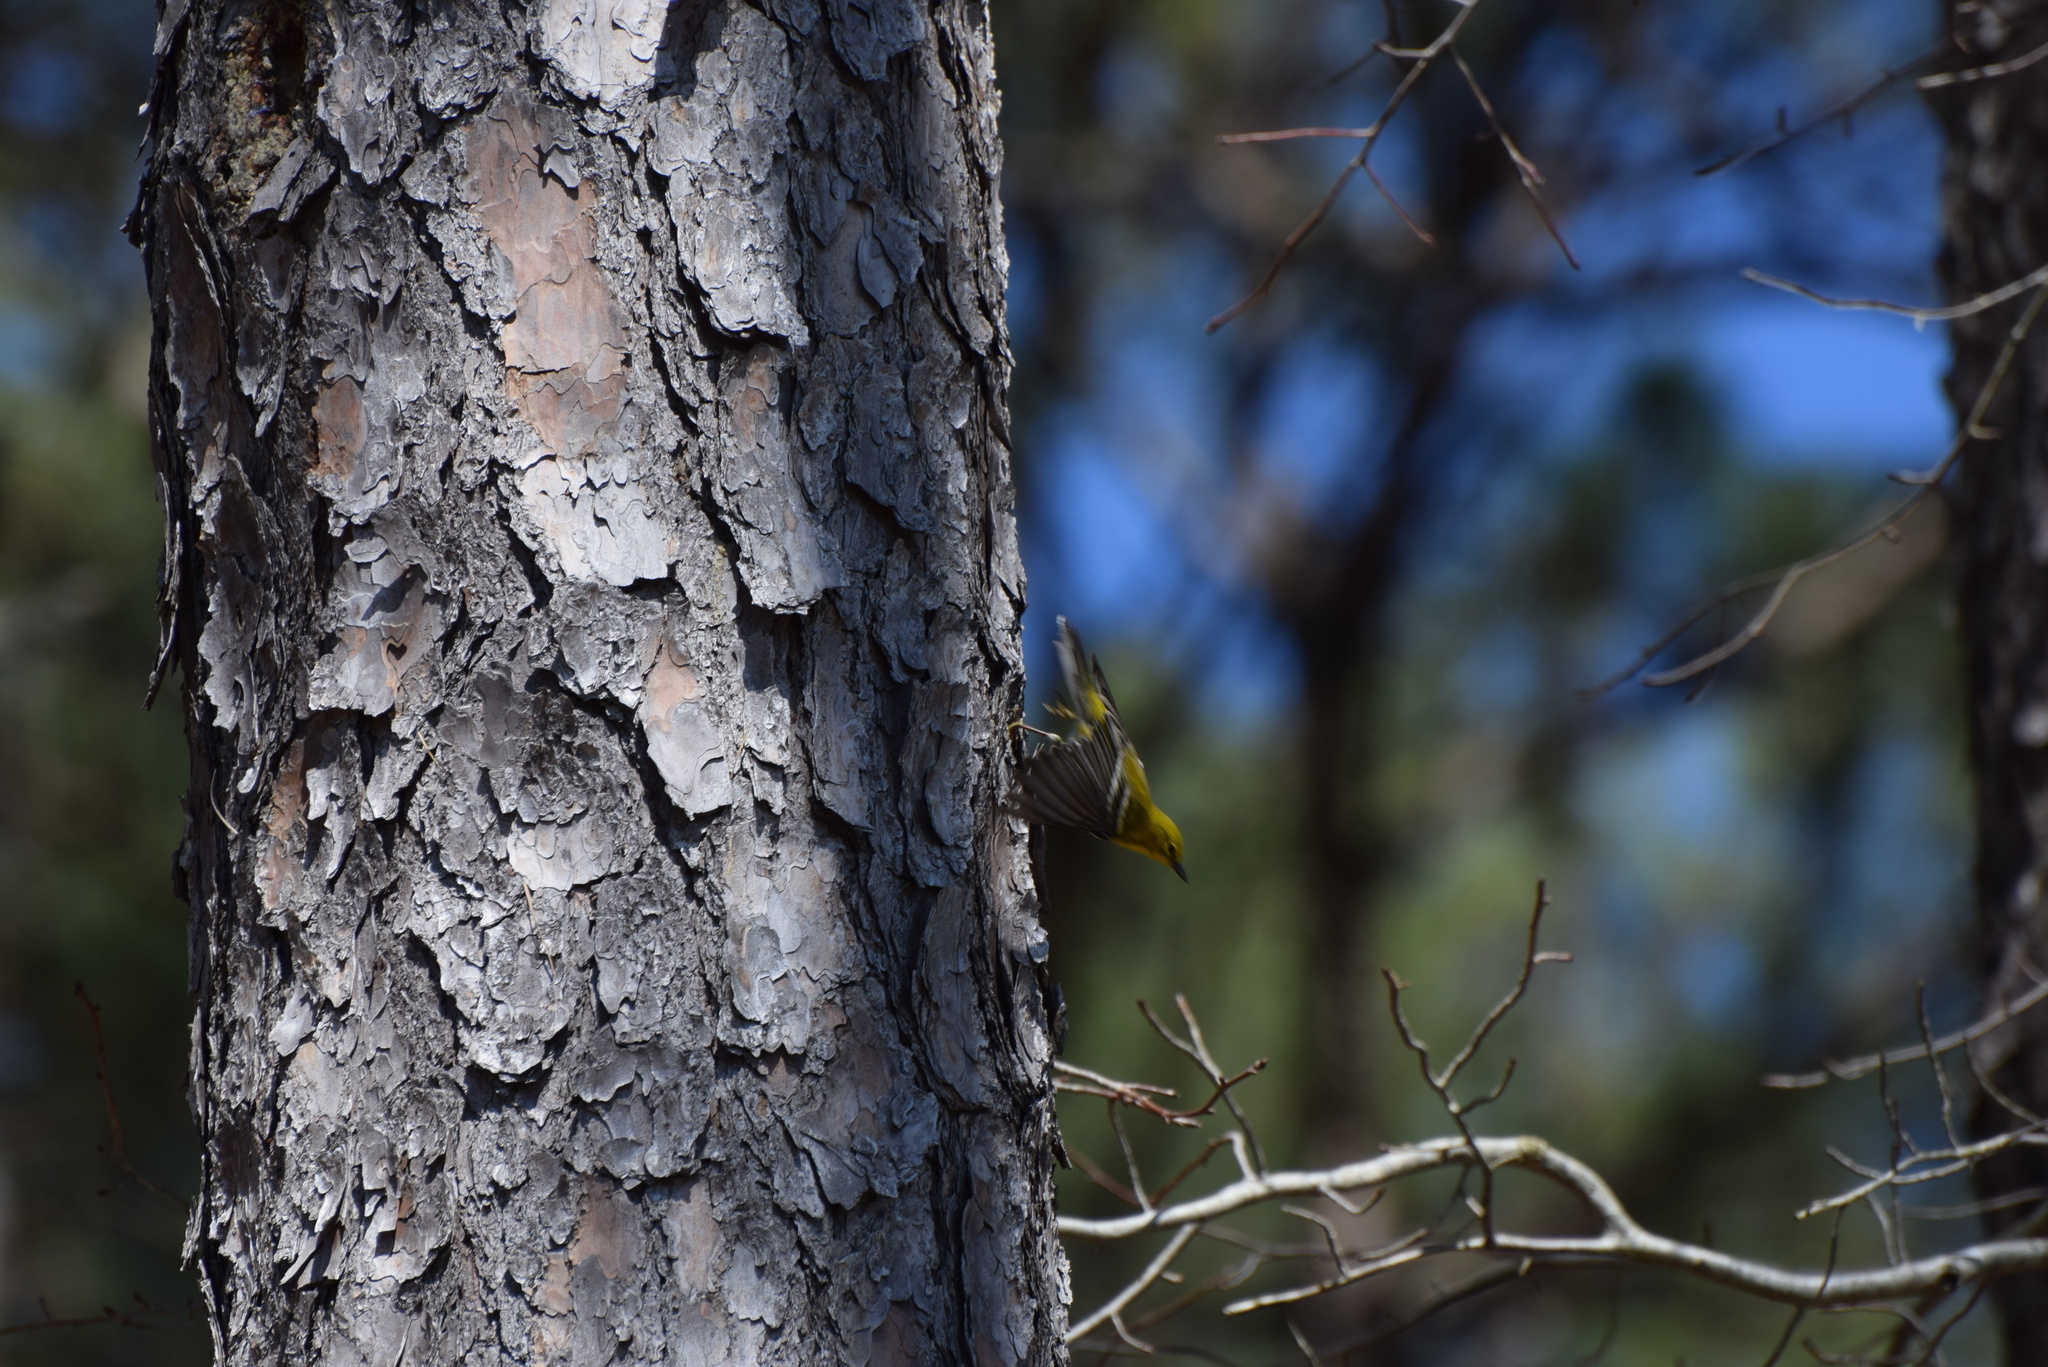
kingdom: Animalia
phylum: Chordata
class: Aves
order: Passeriformes
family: Parulidae
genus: Setophaga
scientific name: Setophaga pinus
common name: Pine warbler
